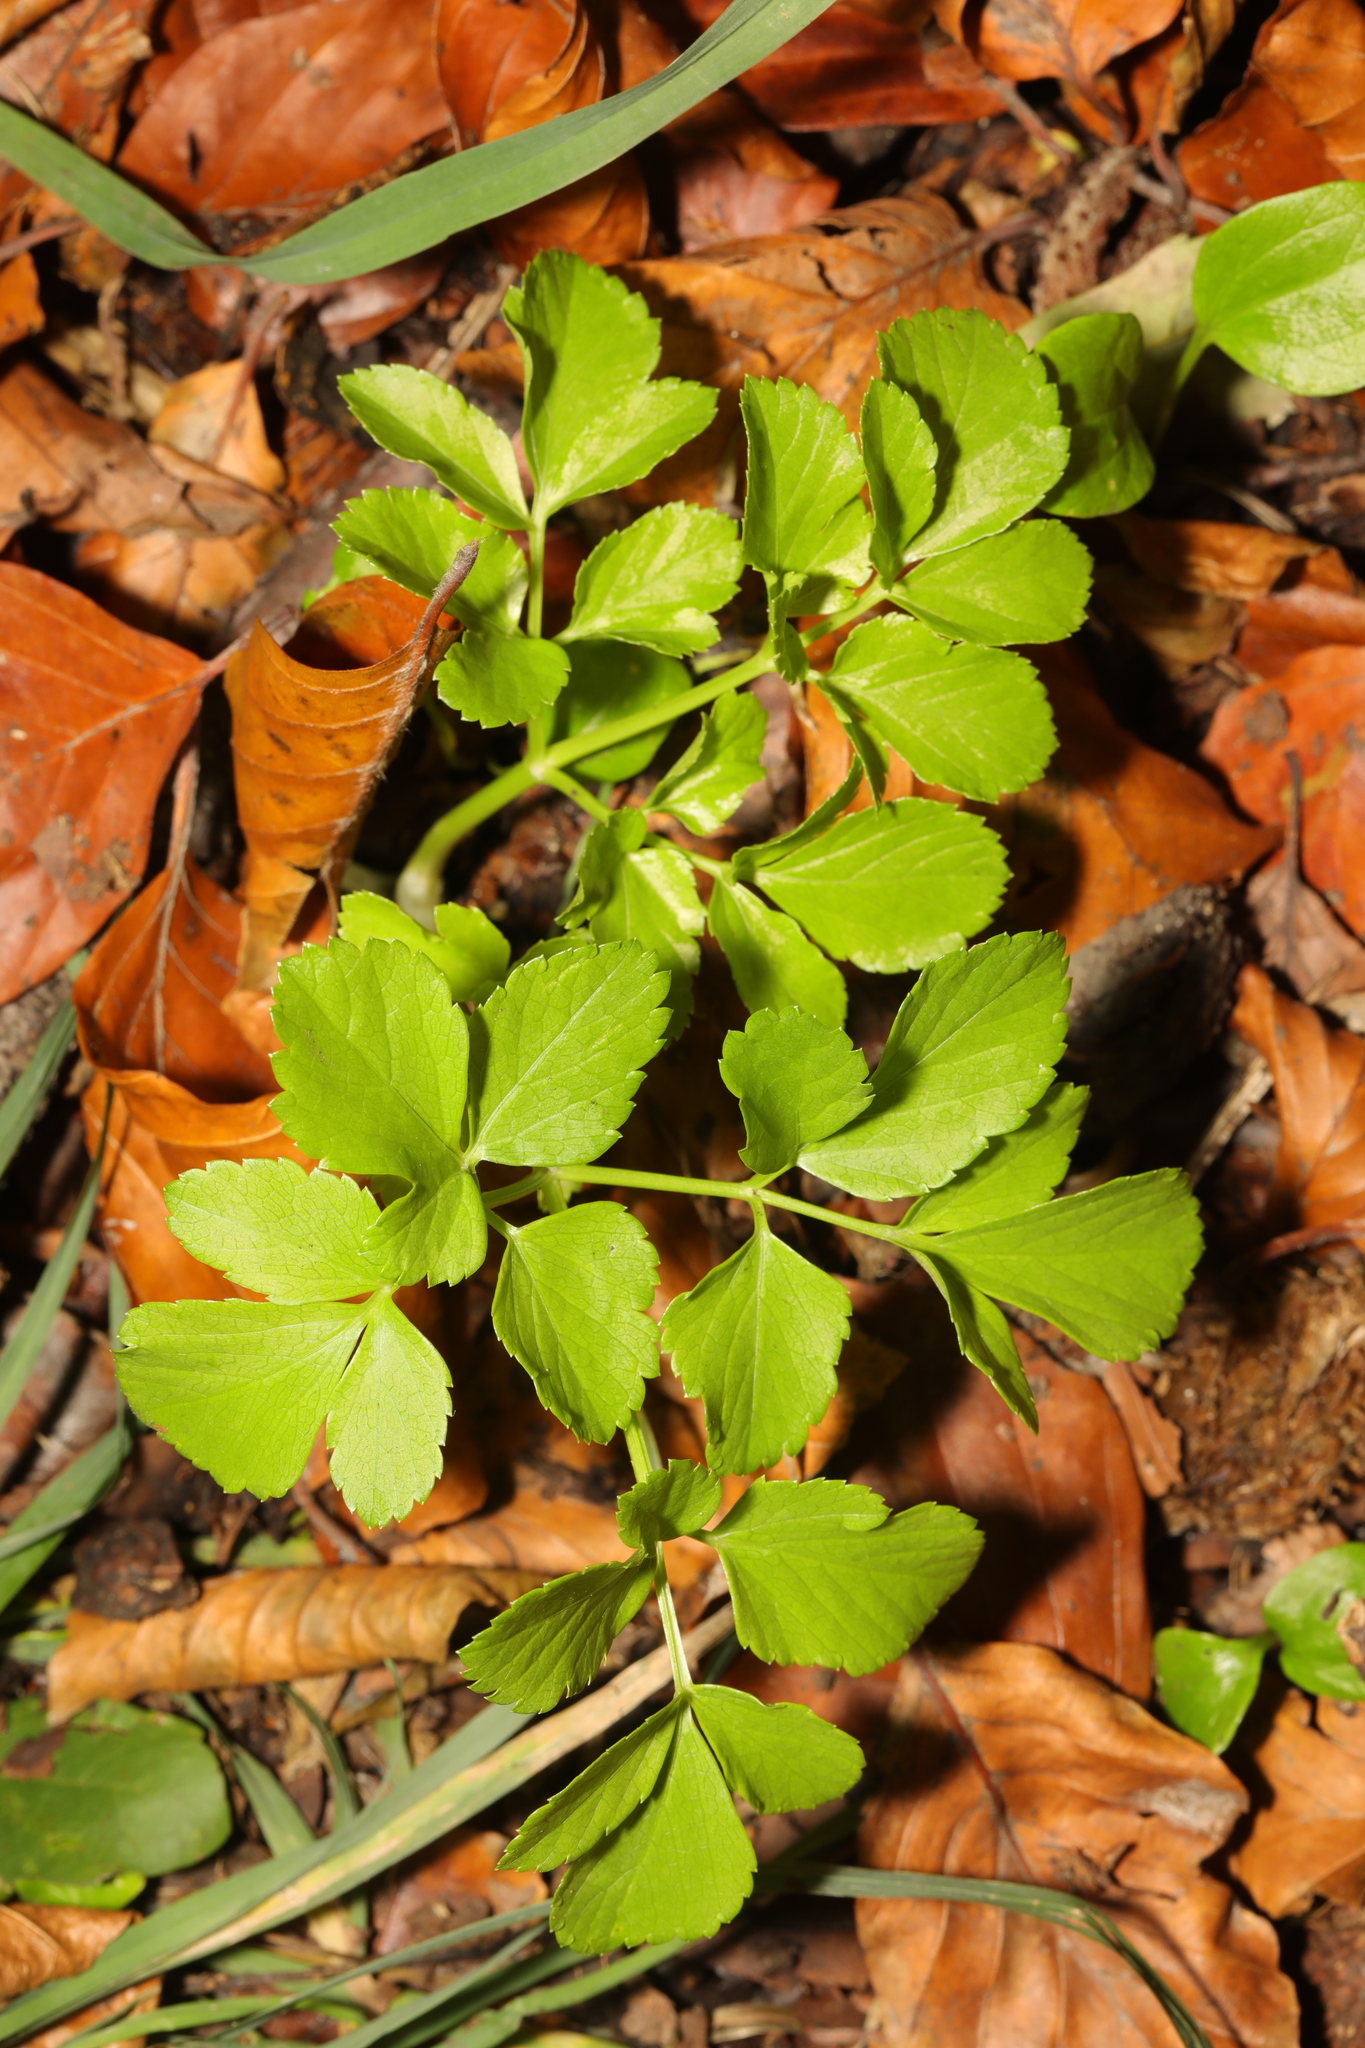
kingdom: Plantae
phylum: Tracheophyta
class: Magnoliopsida
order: Apiales
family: Apiaceae
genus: Smyrnium
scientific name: Smyrnium olusatrum
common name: Alexanders
